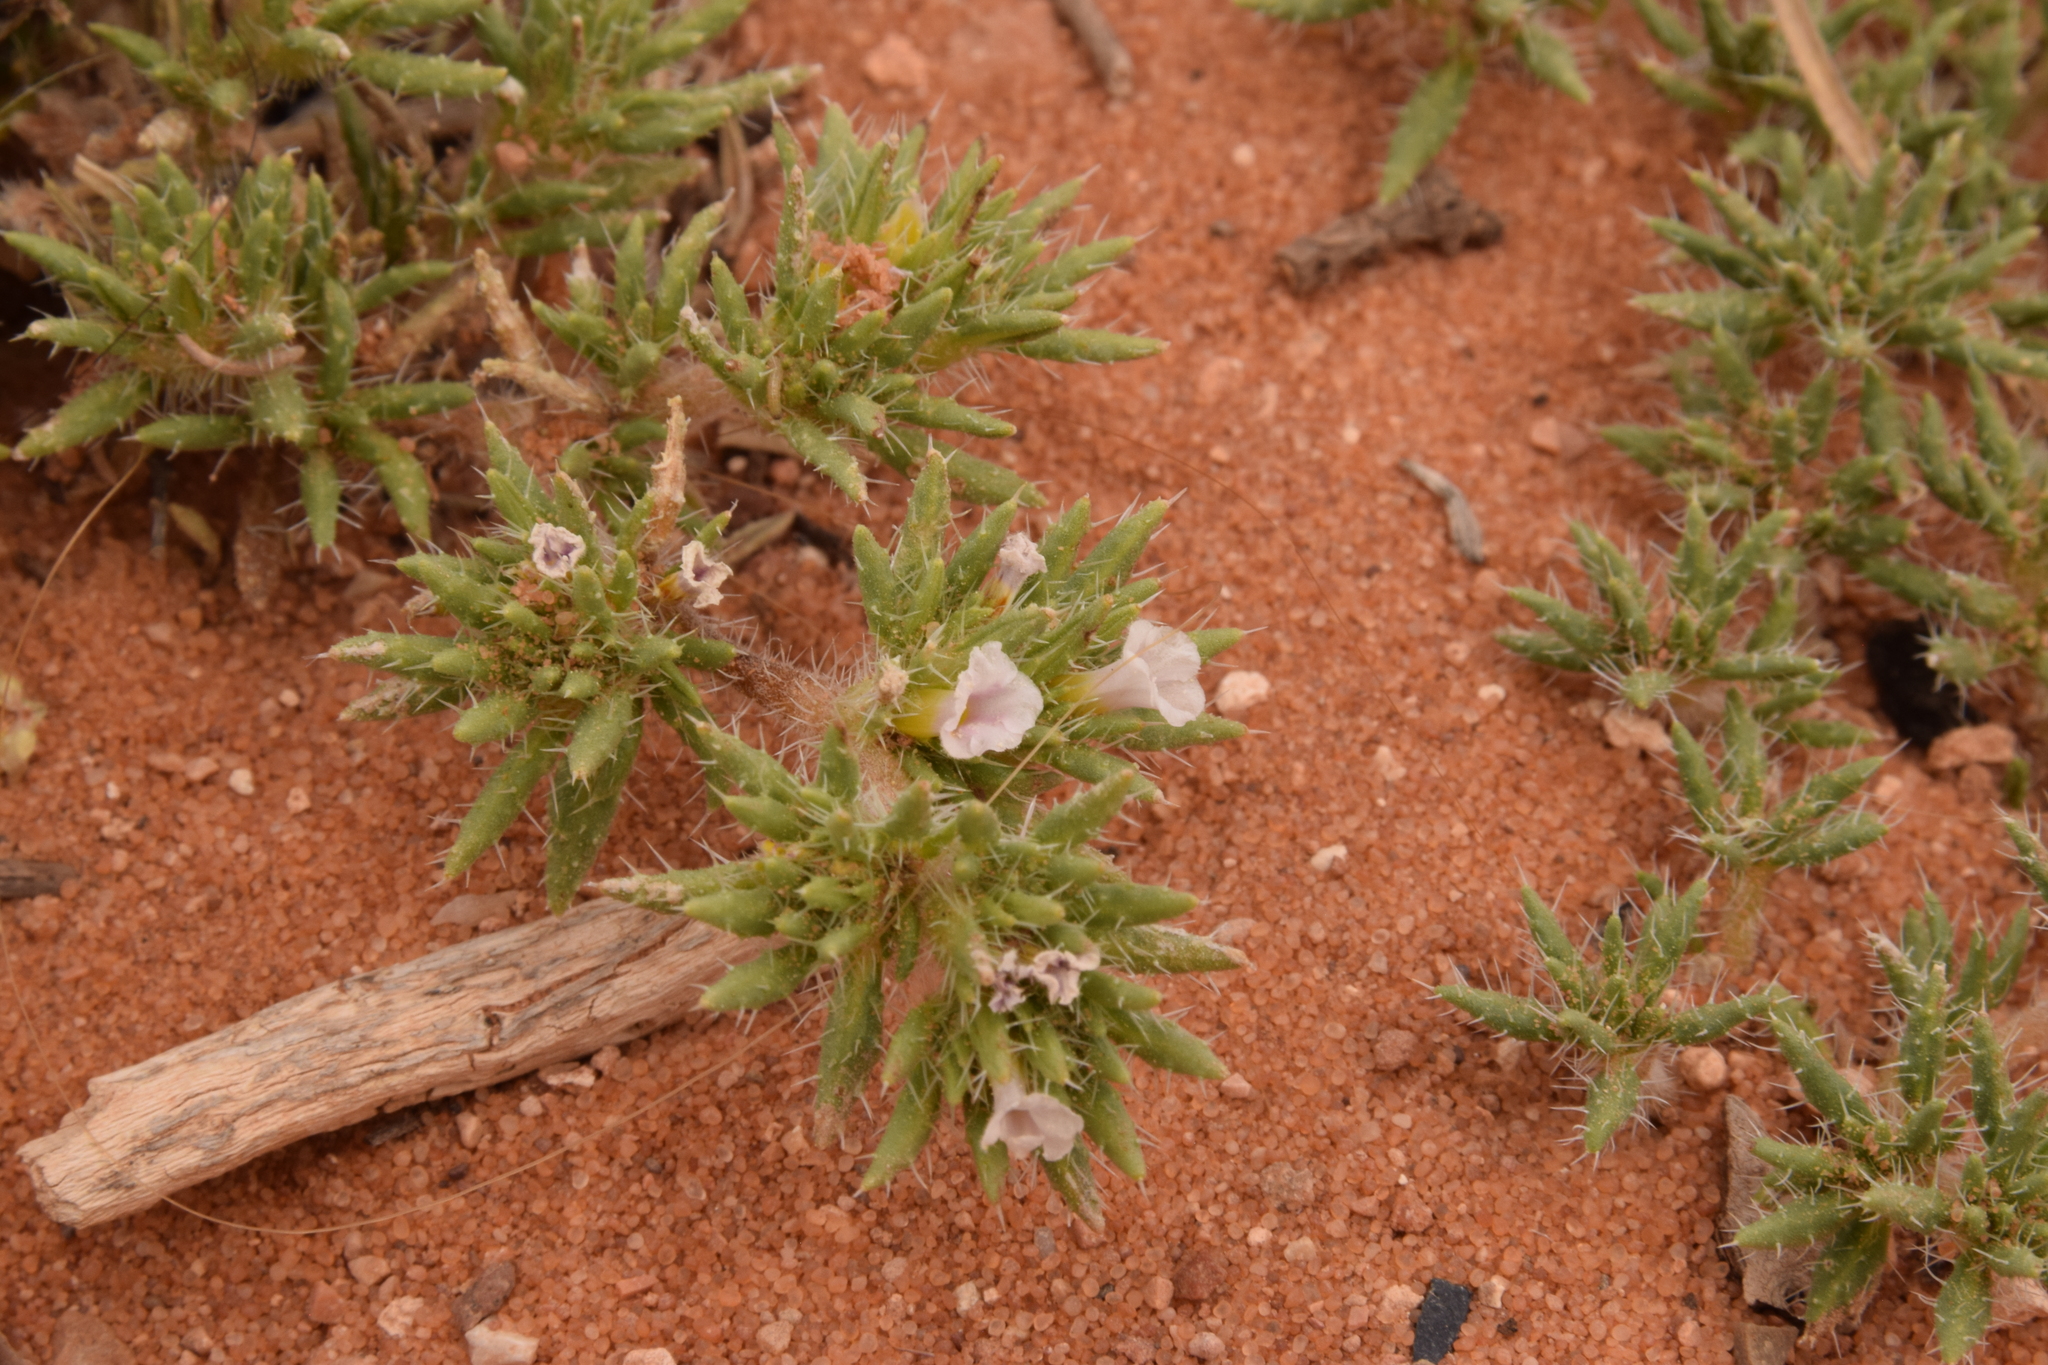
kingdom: Plantae
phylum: Tracheophyta
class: Magnoliopsida
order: Boraginales
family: Ehretiaceae
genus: Tiquilia
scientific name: Tiquilia latior
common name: Matted tiquilia
